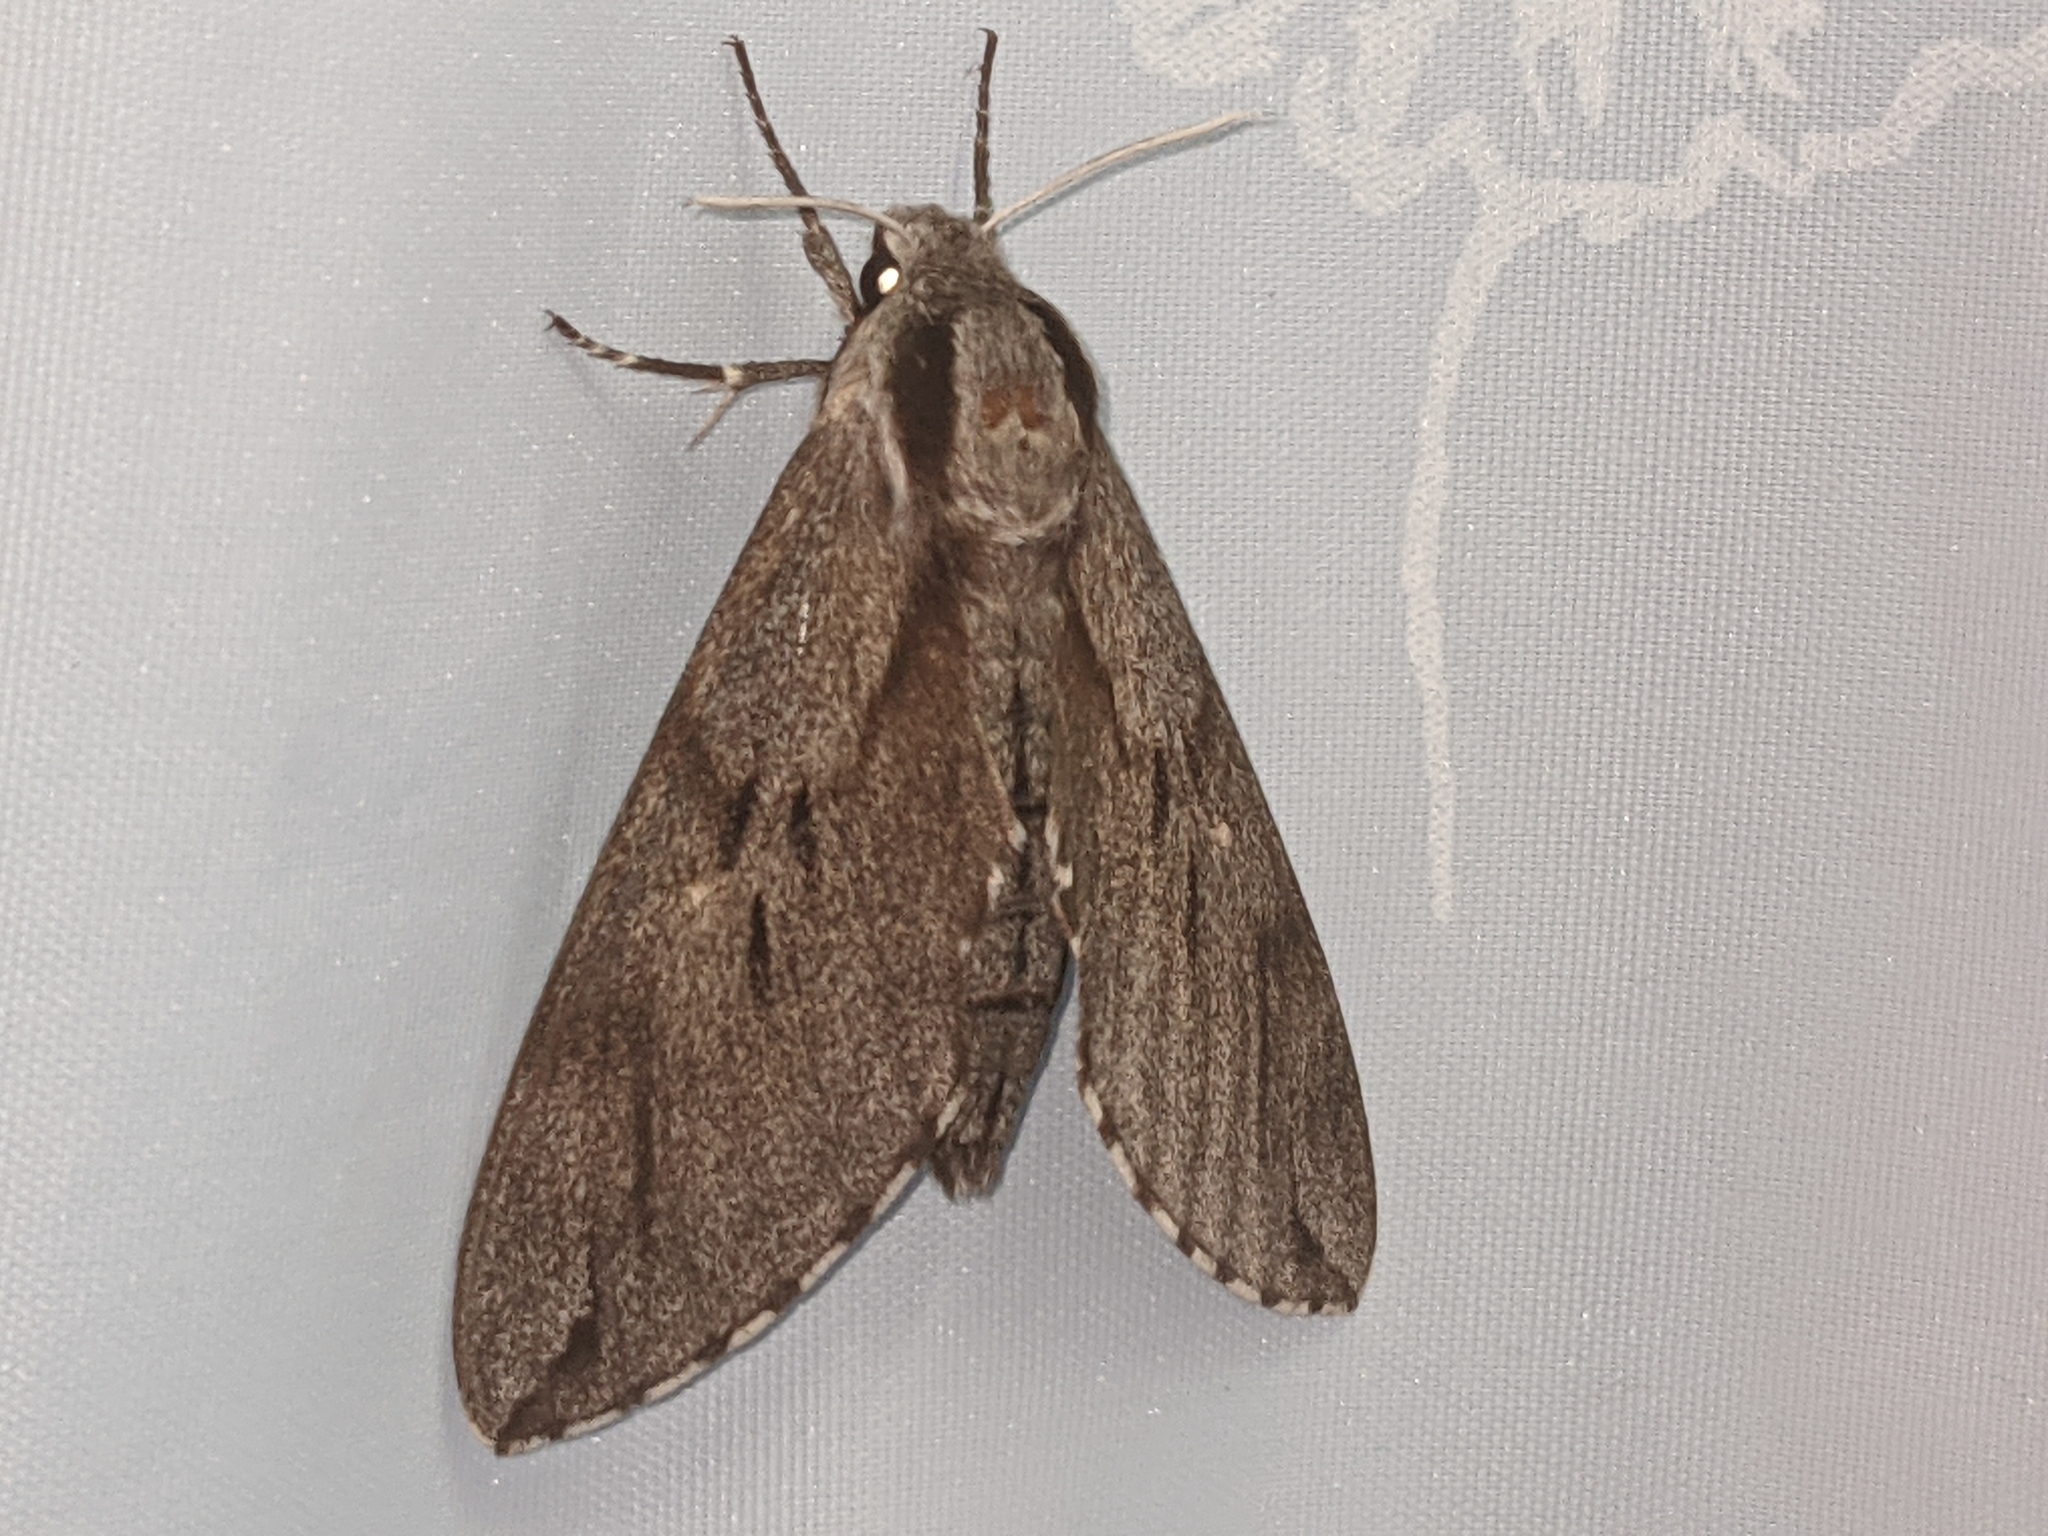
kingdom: Animalia
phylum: Arthropoda
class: Insecta
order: Lepidoptera
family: Sphingidae
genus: Sphinx
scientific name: Sphinx pinastri
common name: Pine hawk-moth
